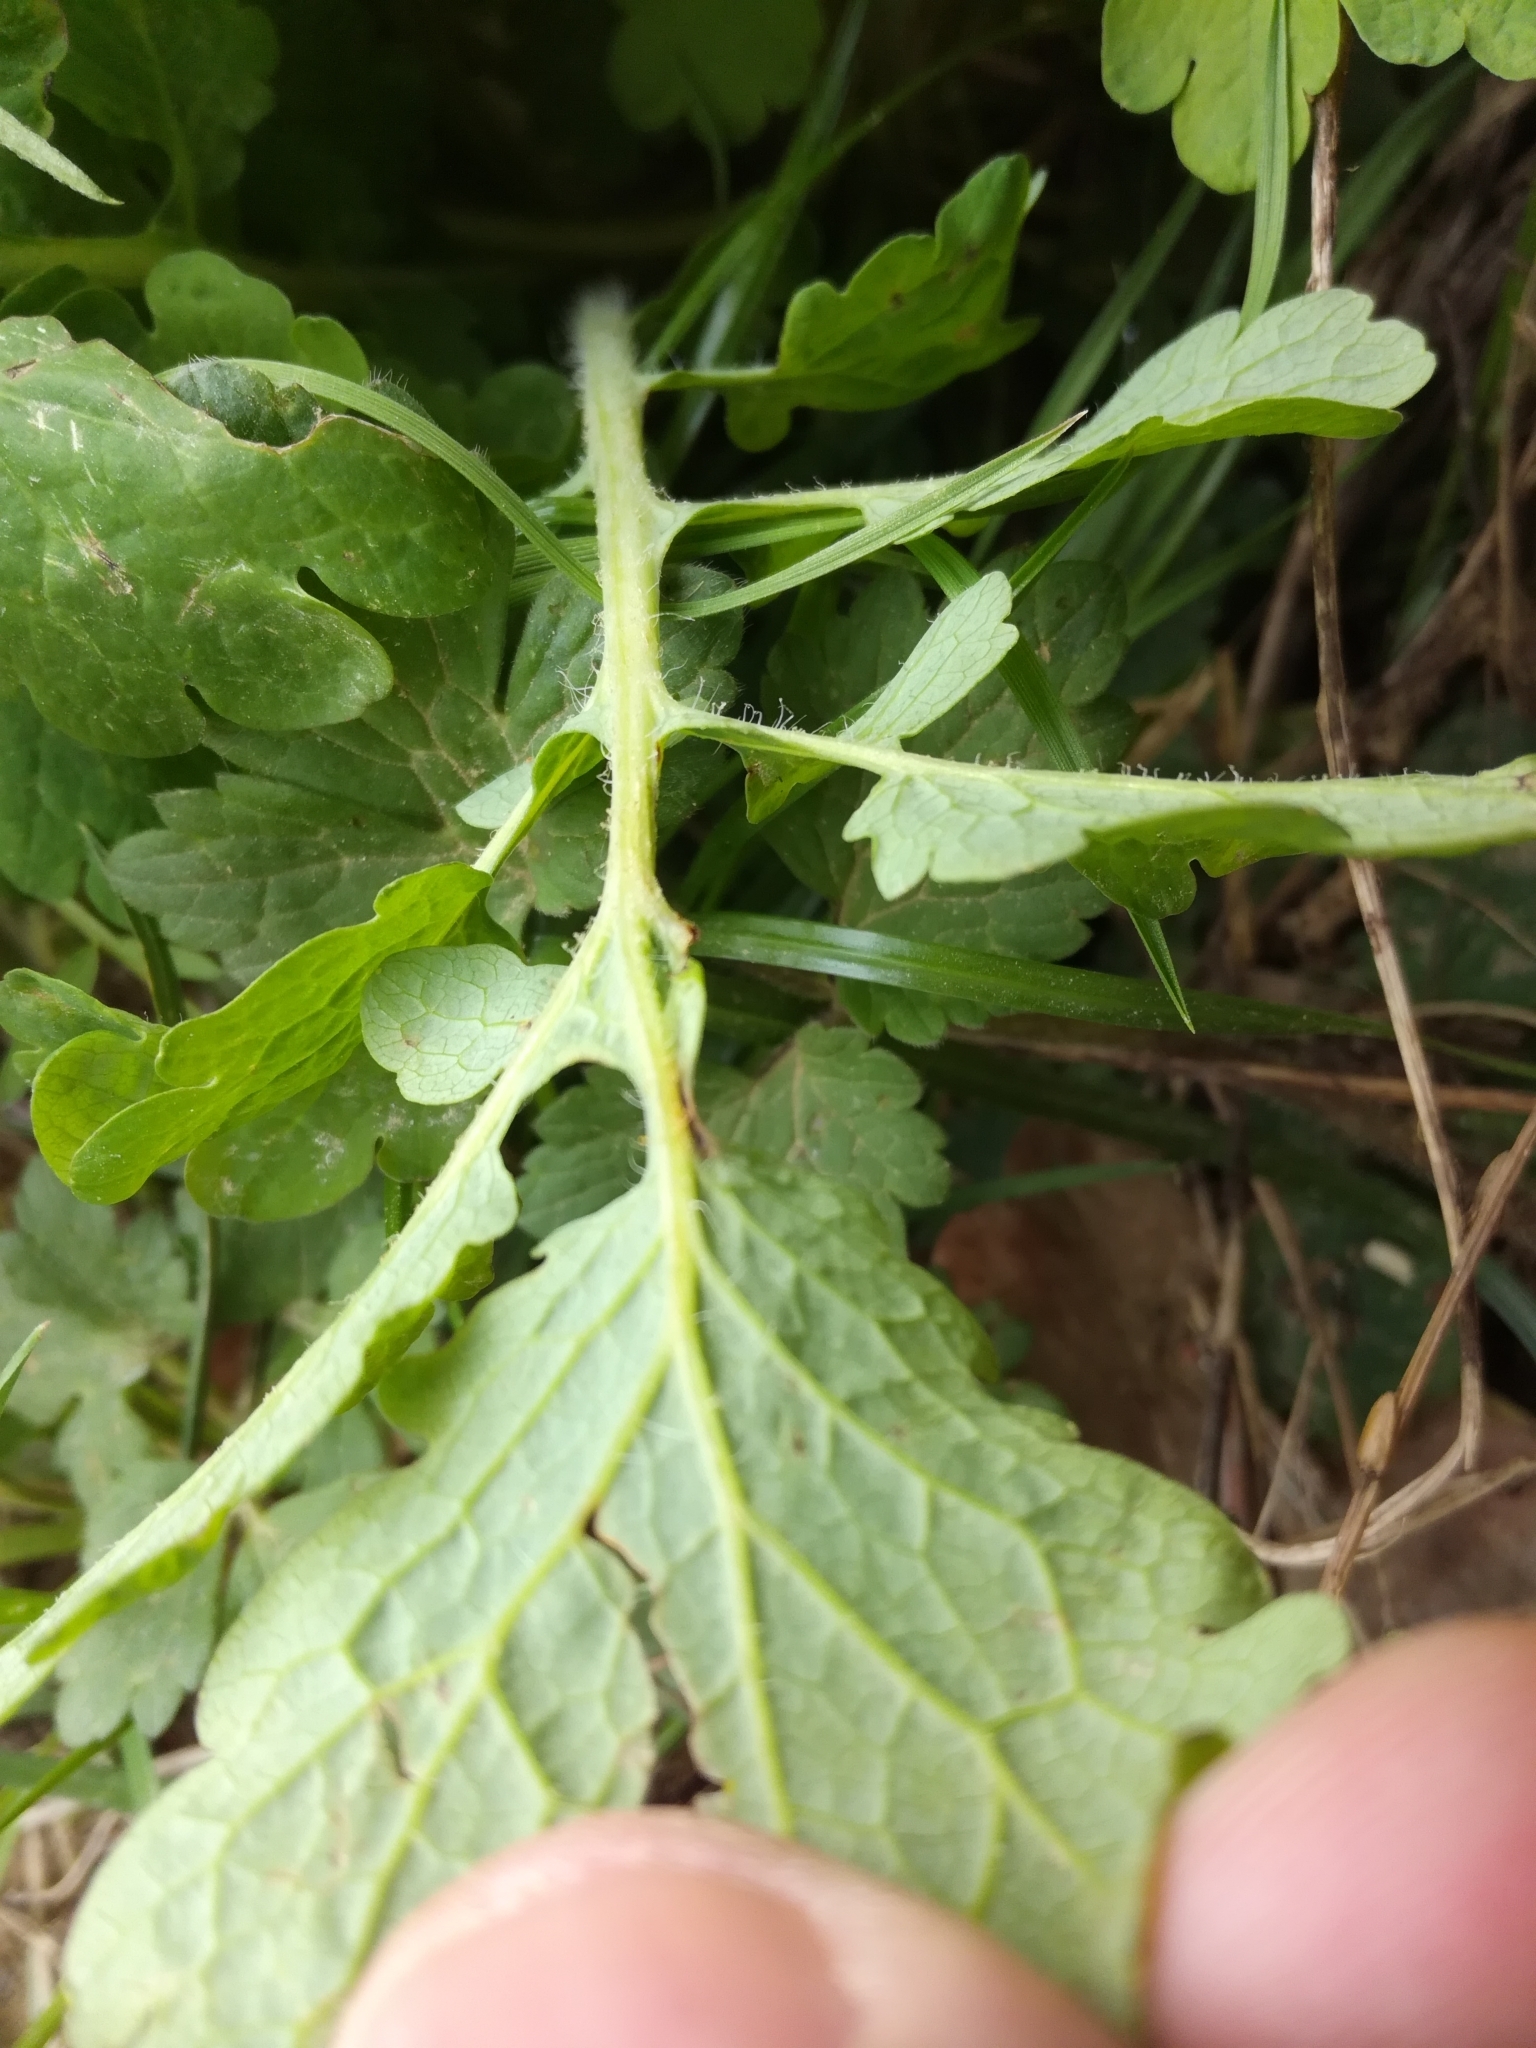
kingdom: Plantae
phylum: Tracheophyta
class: Magnoliopsida
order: Ranunculales
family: Papaveraceae
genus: Chelidonium
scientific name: Chelidonium majus
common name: Greater celandine
